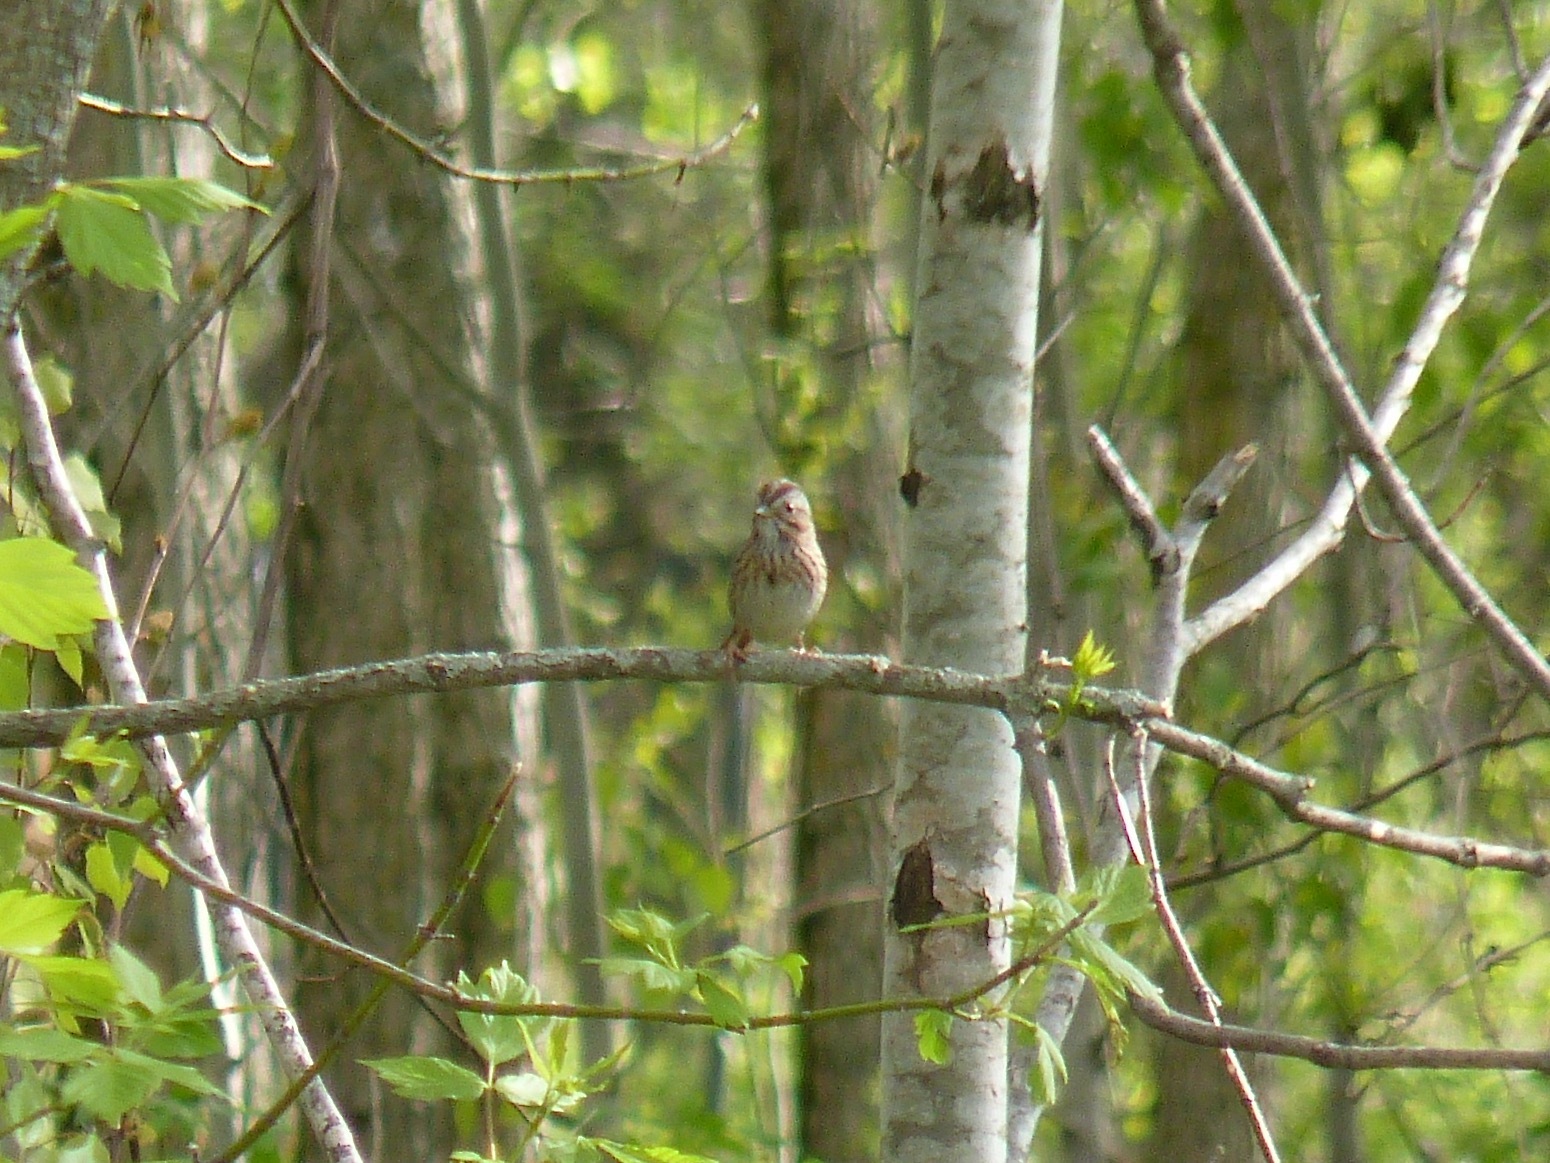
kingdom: Animalia
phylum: Chordata
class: Aves
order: Passeriformes
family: Passerellidae
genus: Melospiza
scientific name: Melospiza lincolnii
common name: Lincoln's sparrow
